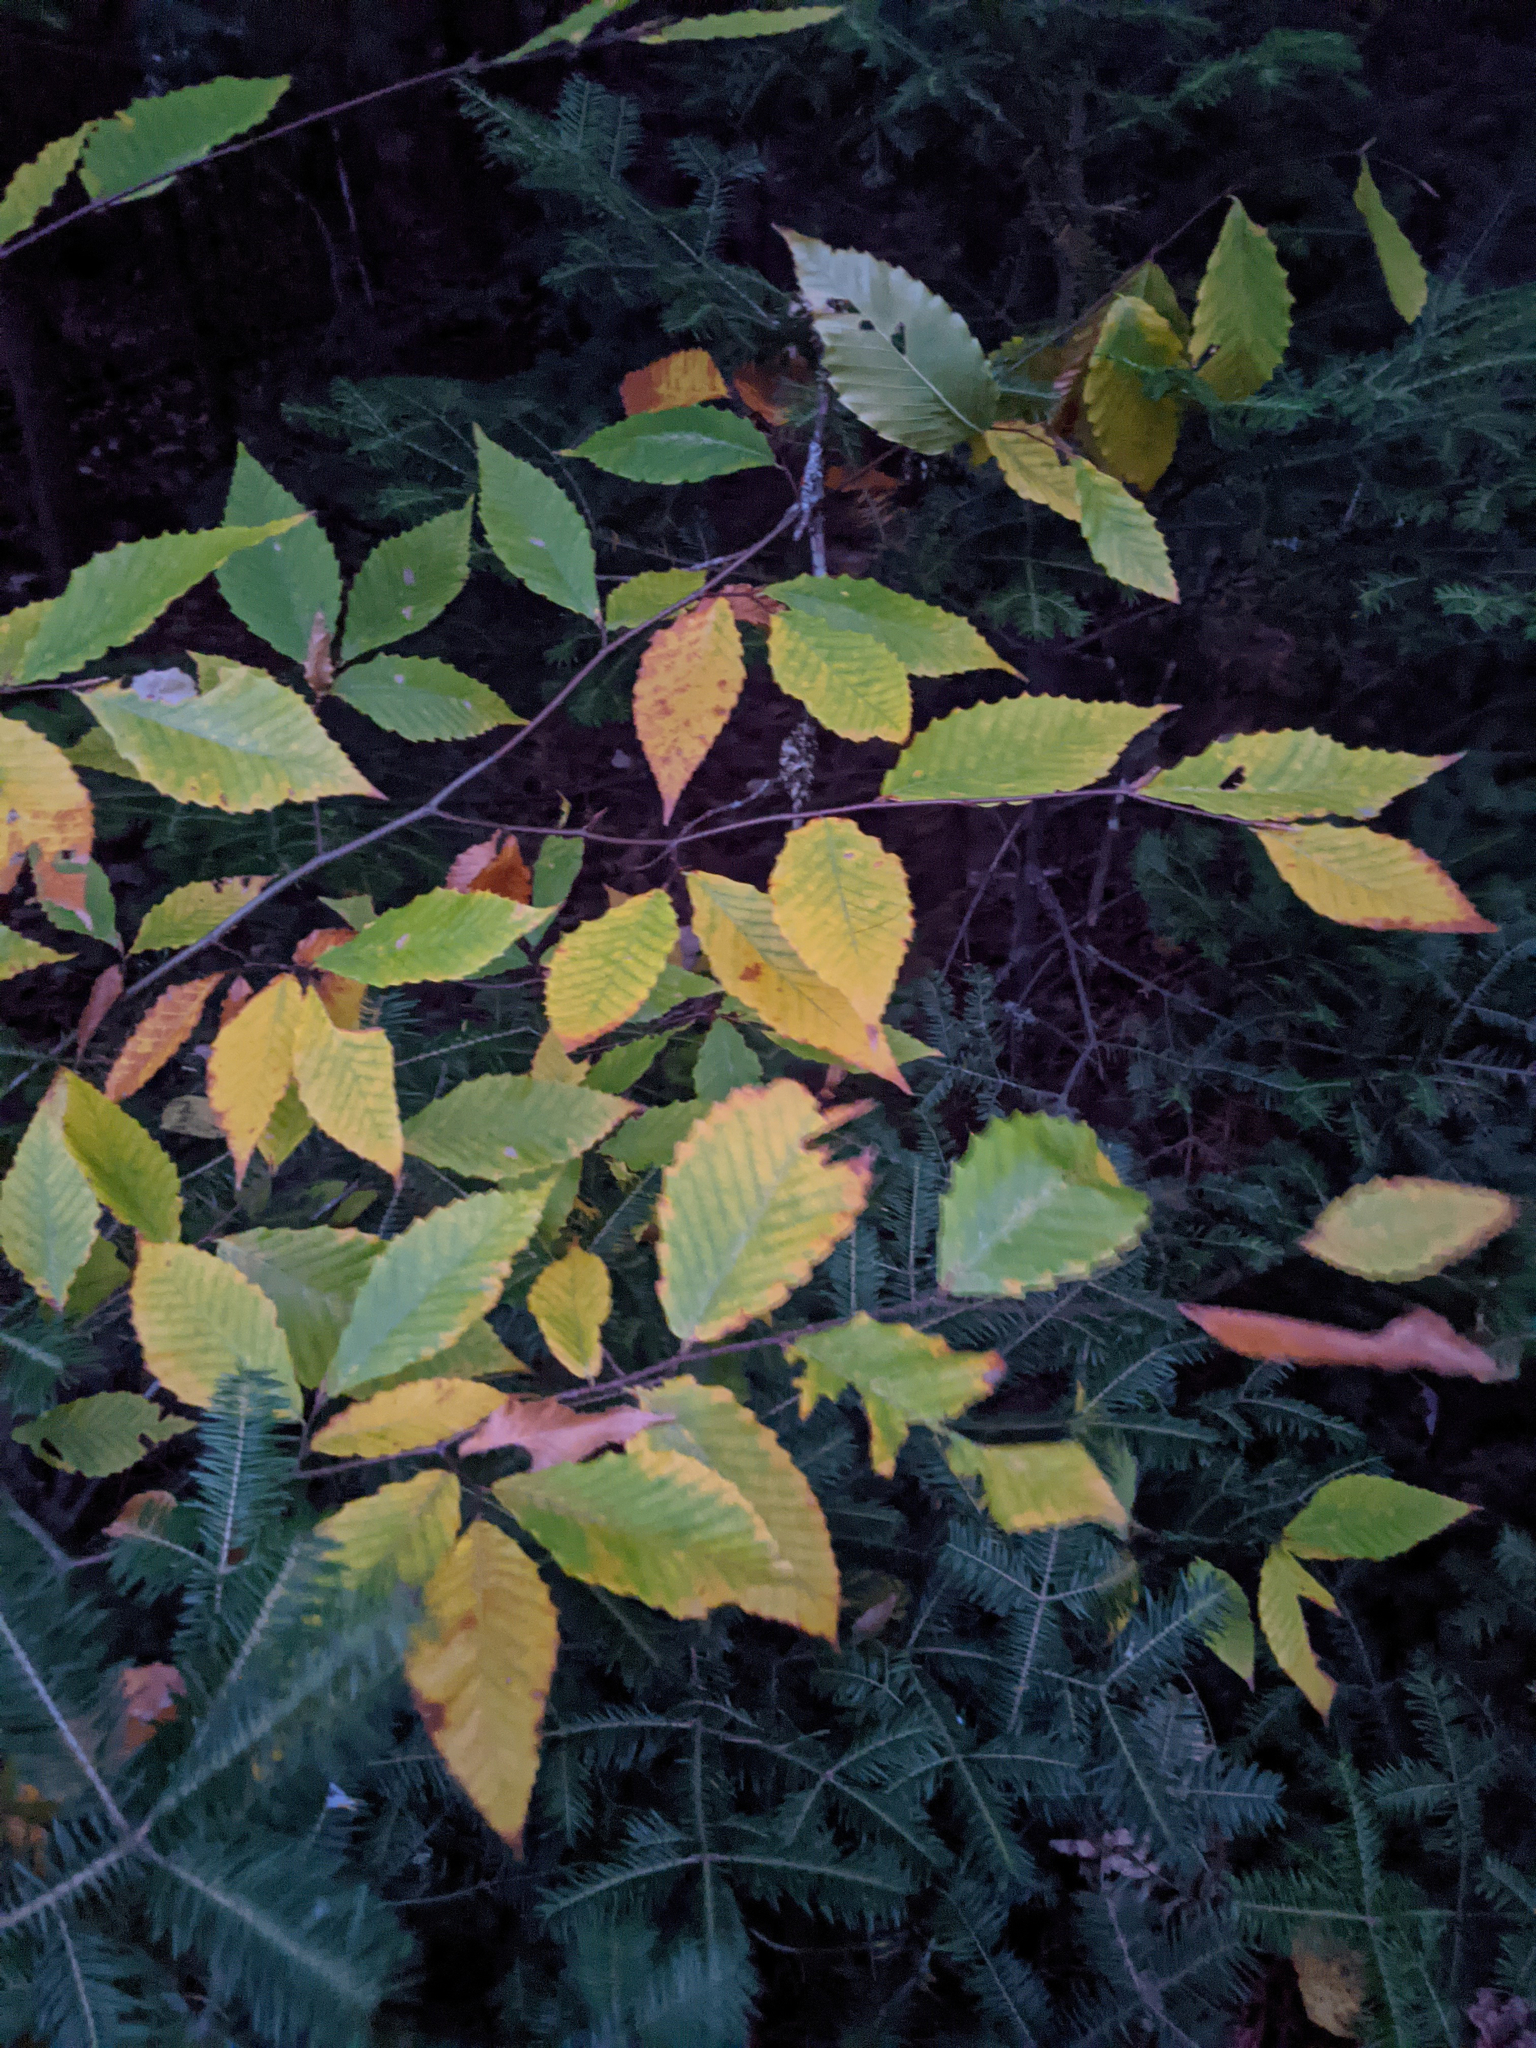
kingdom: Plantae
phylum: Tracheophyta
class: Magnoliopsida
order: Fagales
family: Fagaceae
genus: Fagus
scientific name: Fagus grandifolia
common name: American beech
